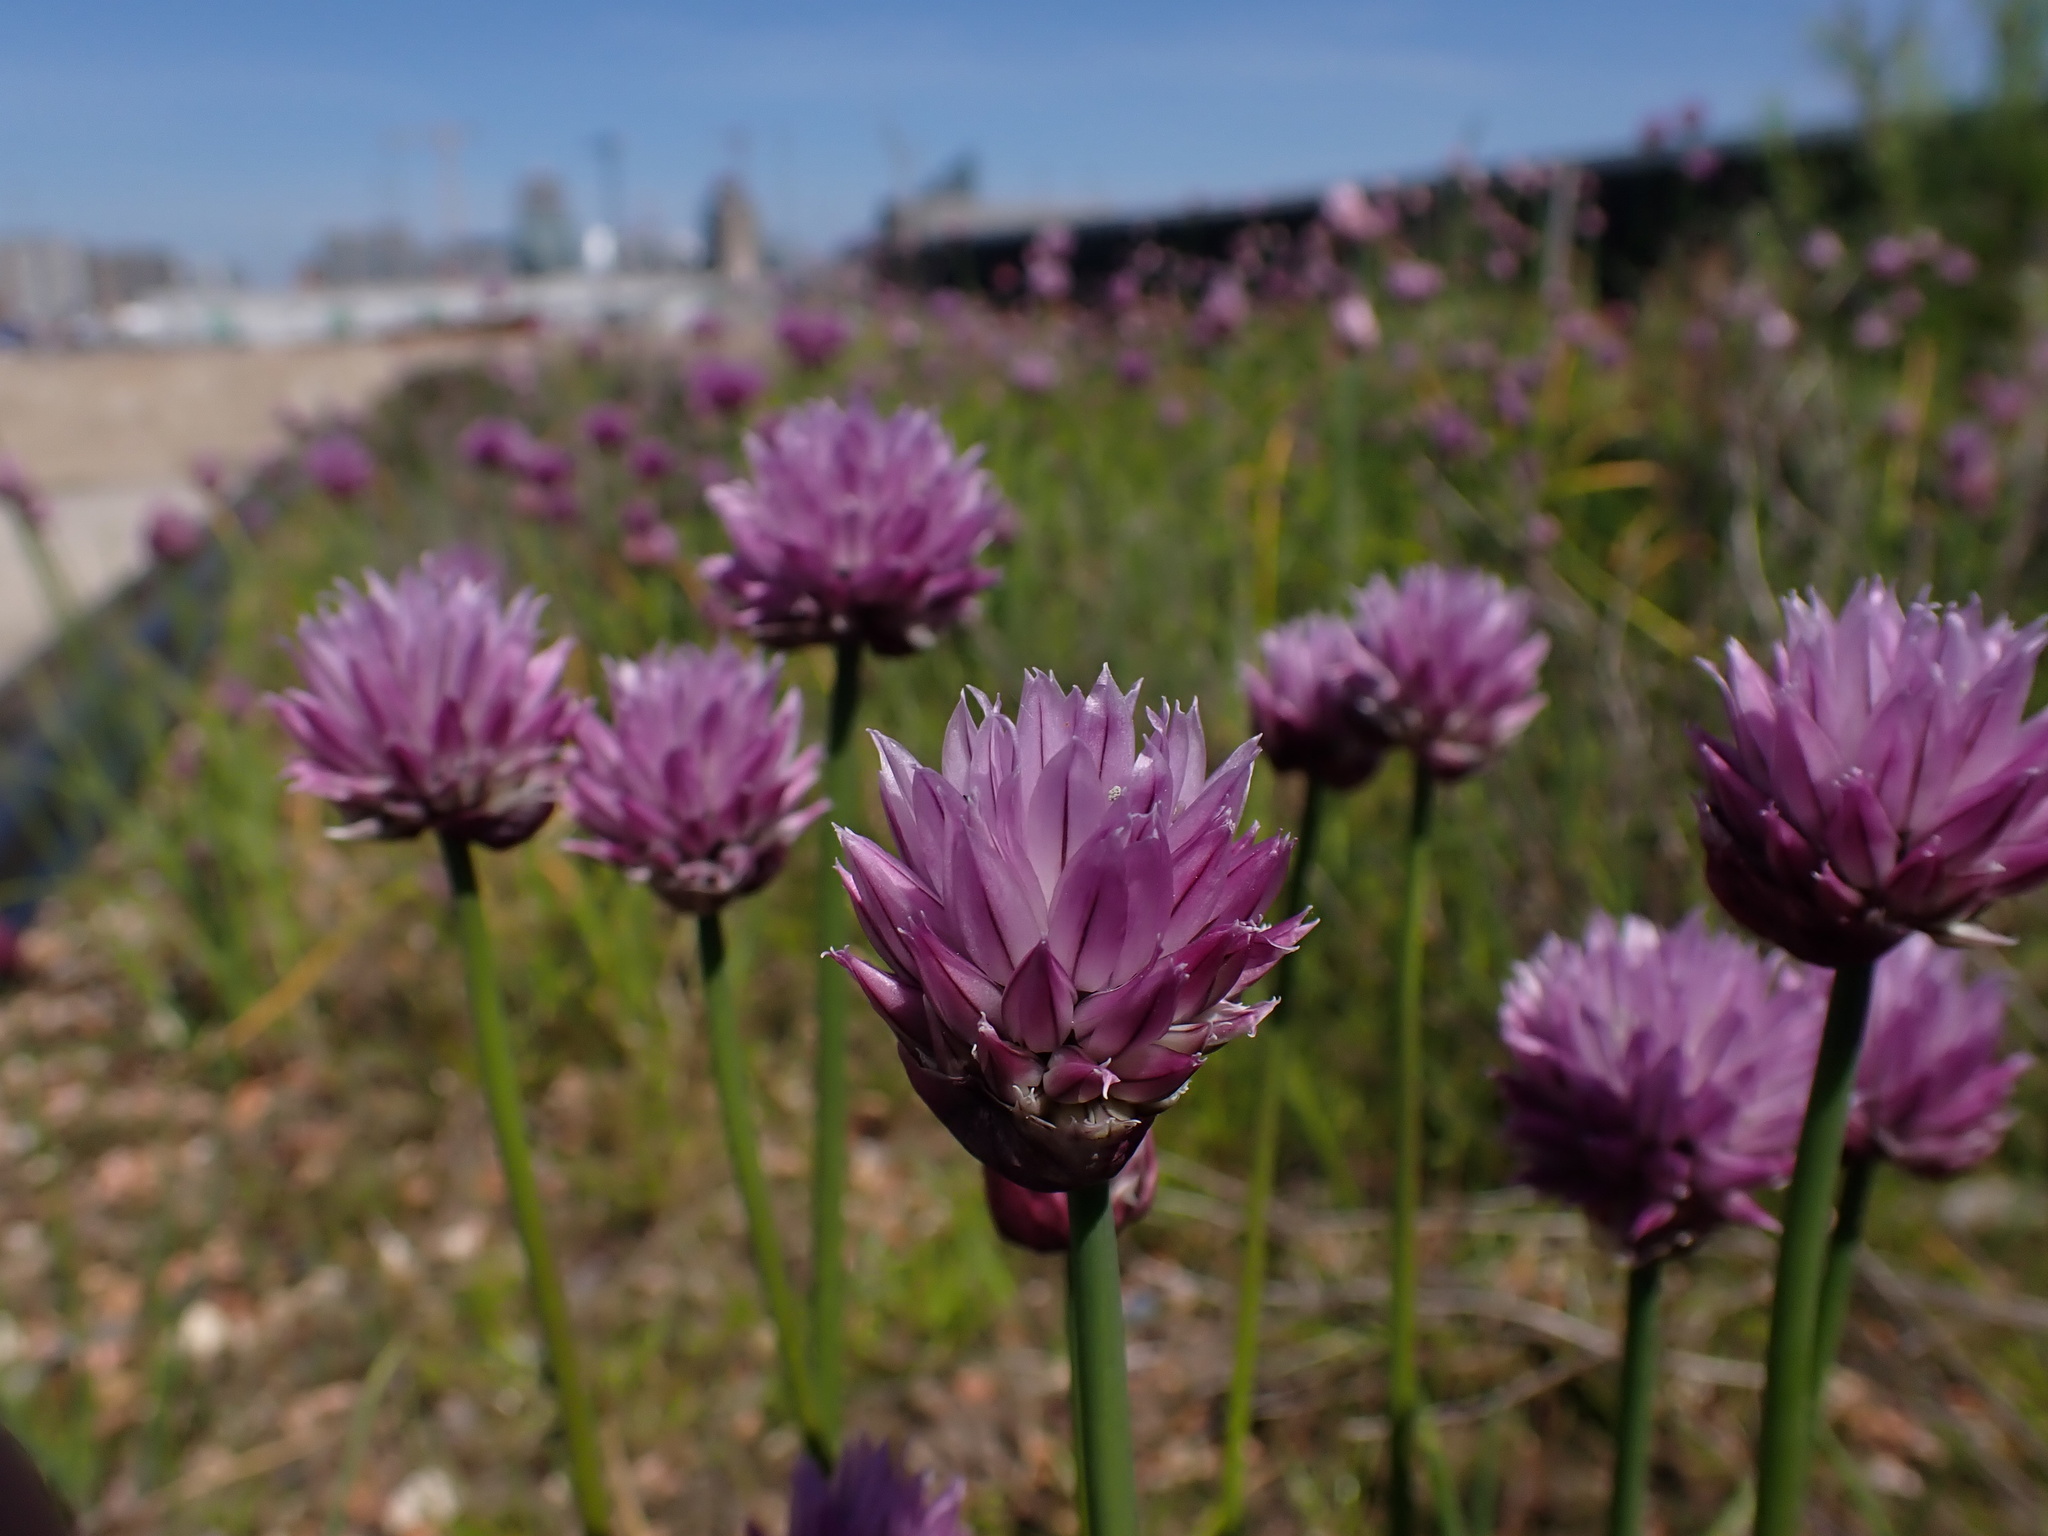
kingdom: Plantae
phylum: Tracheophyta
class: Liliopsida
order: Asparagales
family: Amaryllidaceae
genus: Allium
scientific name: Allium schoenoprasum
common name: Chives
